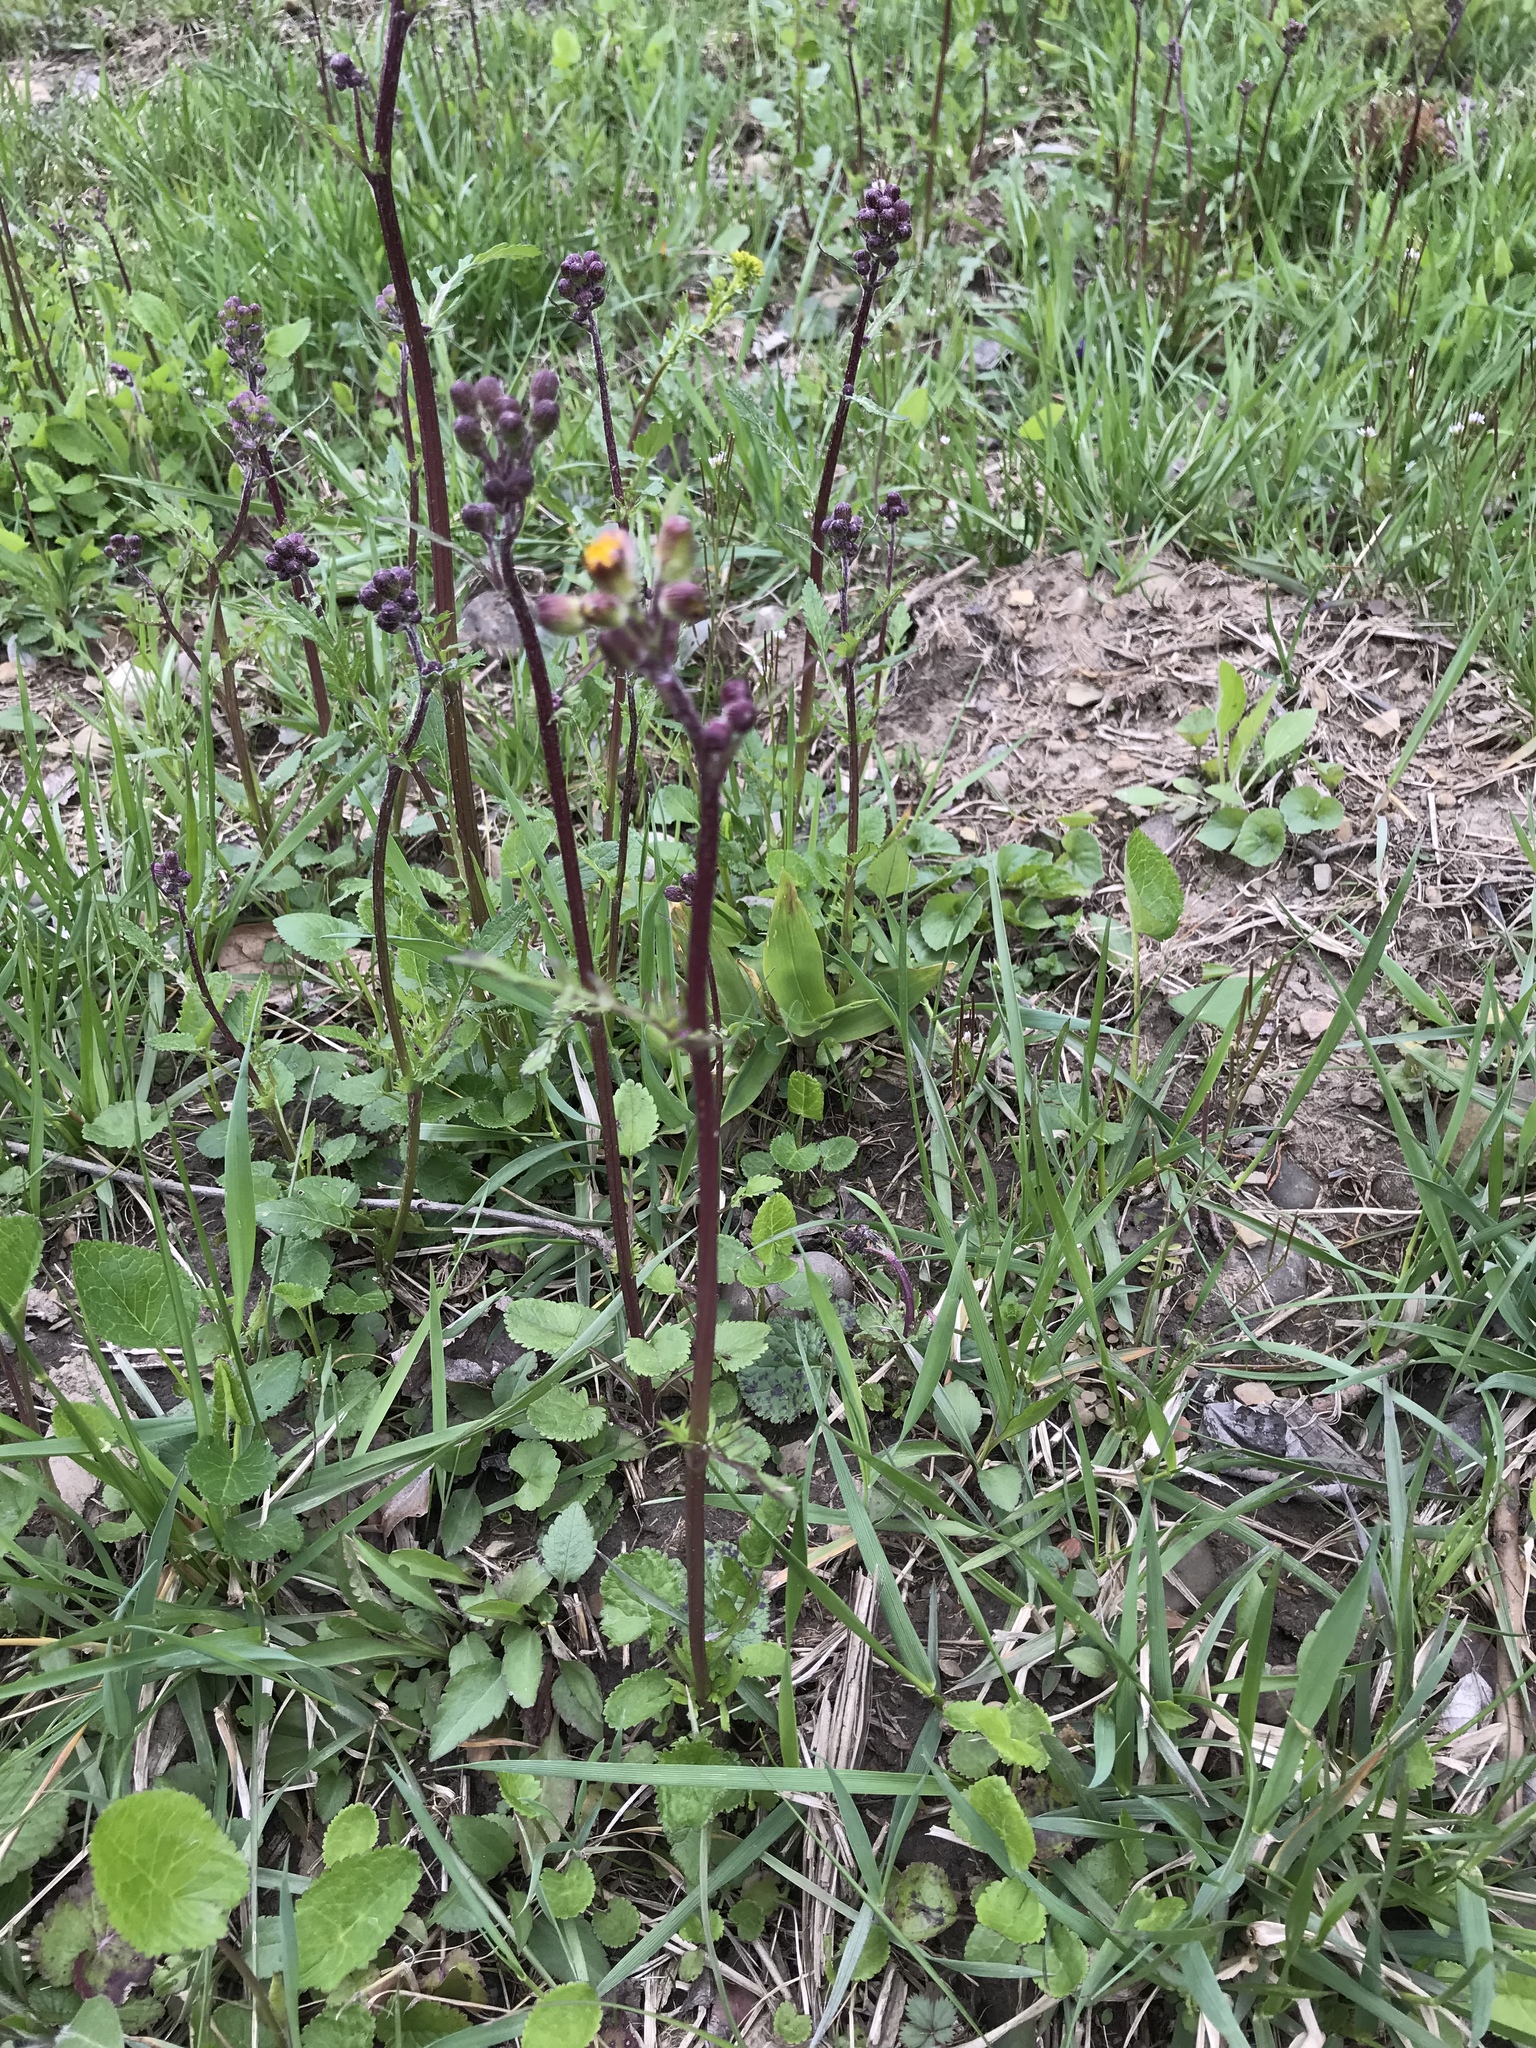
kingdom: Plantae
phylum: Tracheophyta
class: Magnoliopsida
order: Asterales
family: Asteraceae
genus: Packera
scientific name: Packera aurea
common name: Golden groundsel
